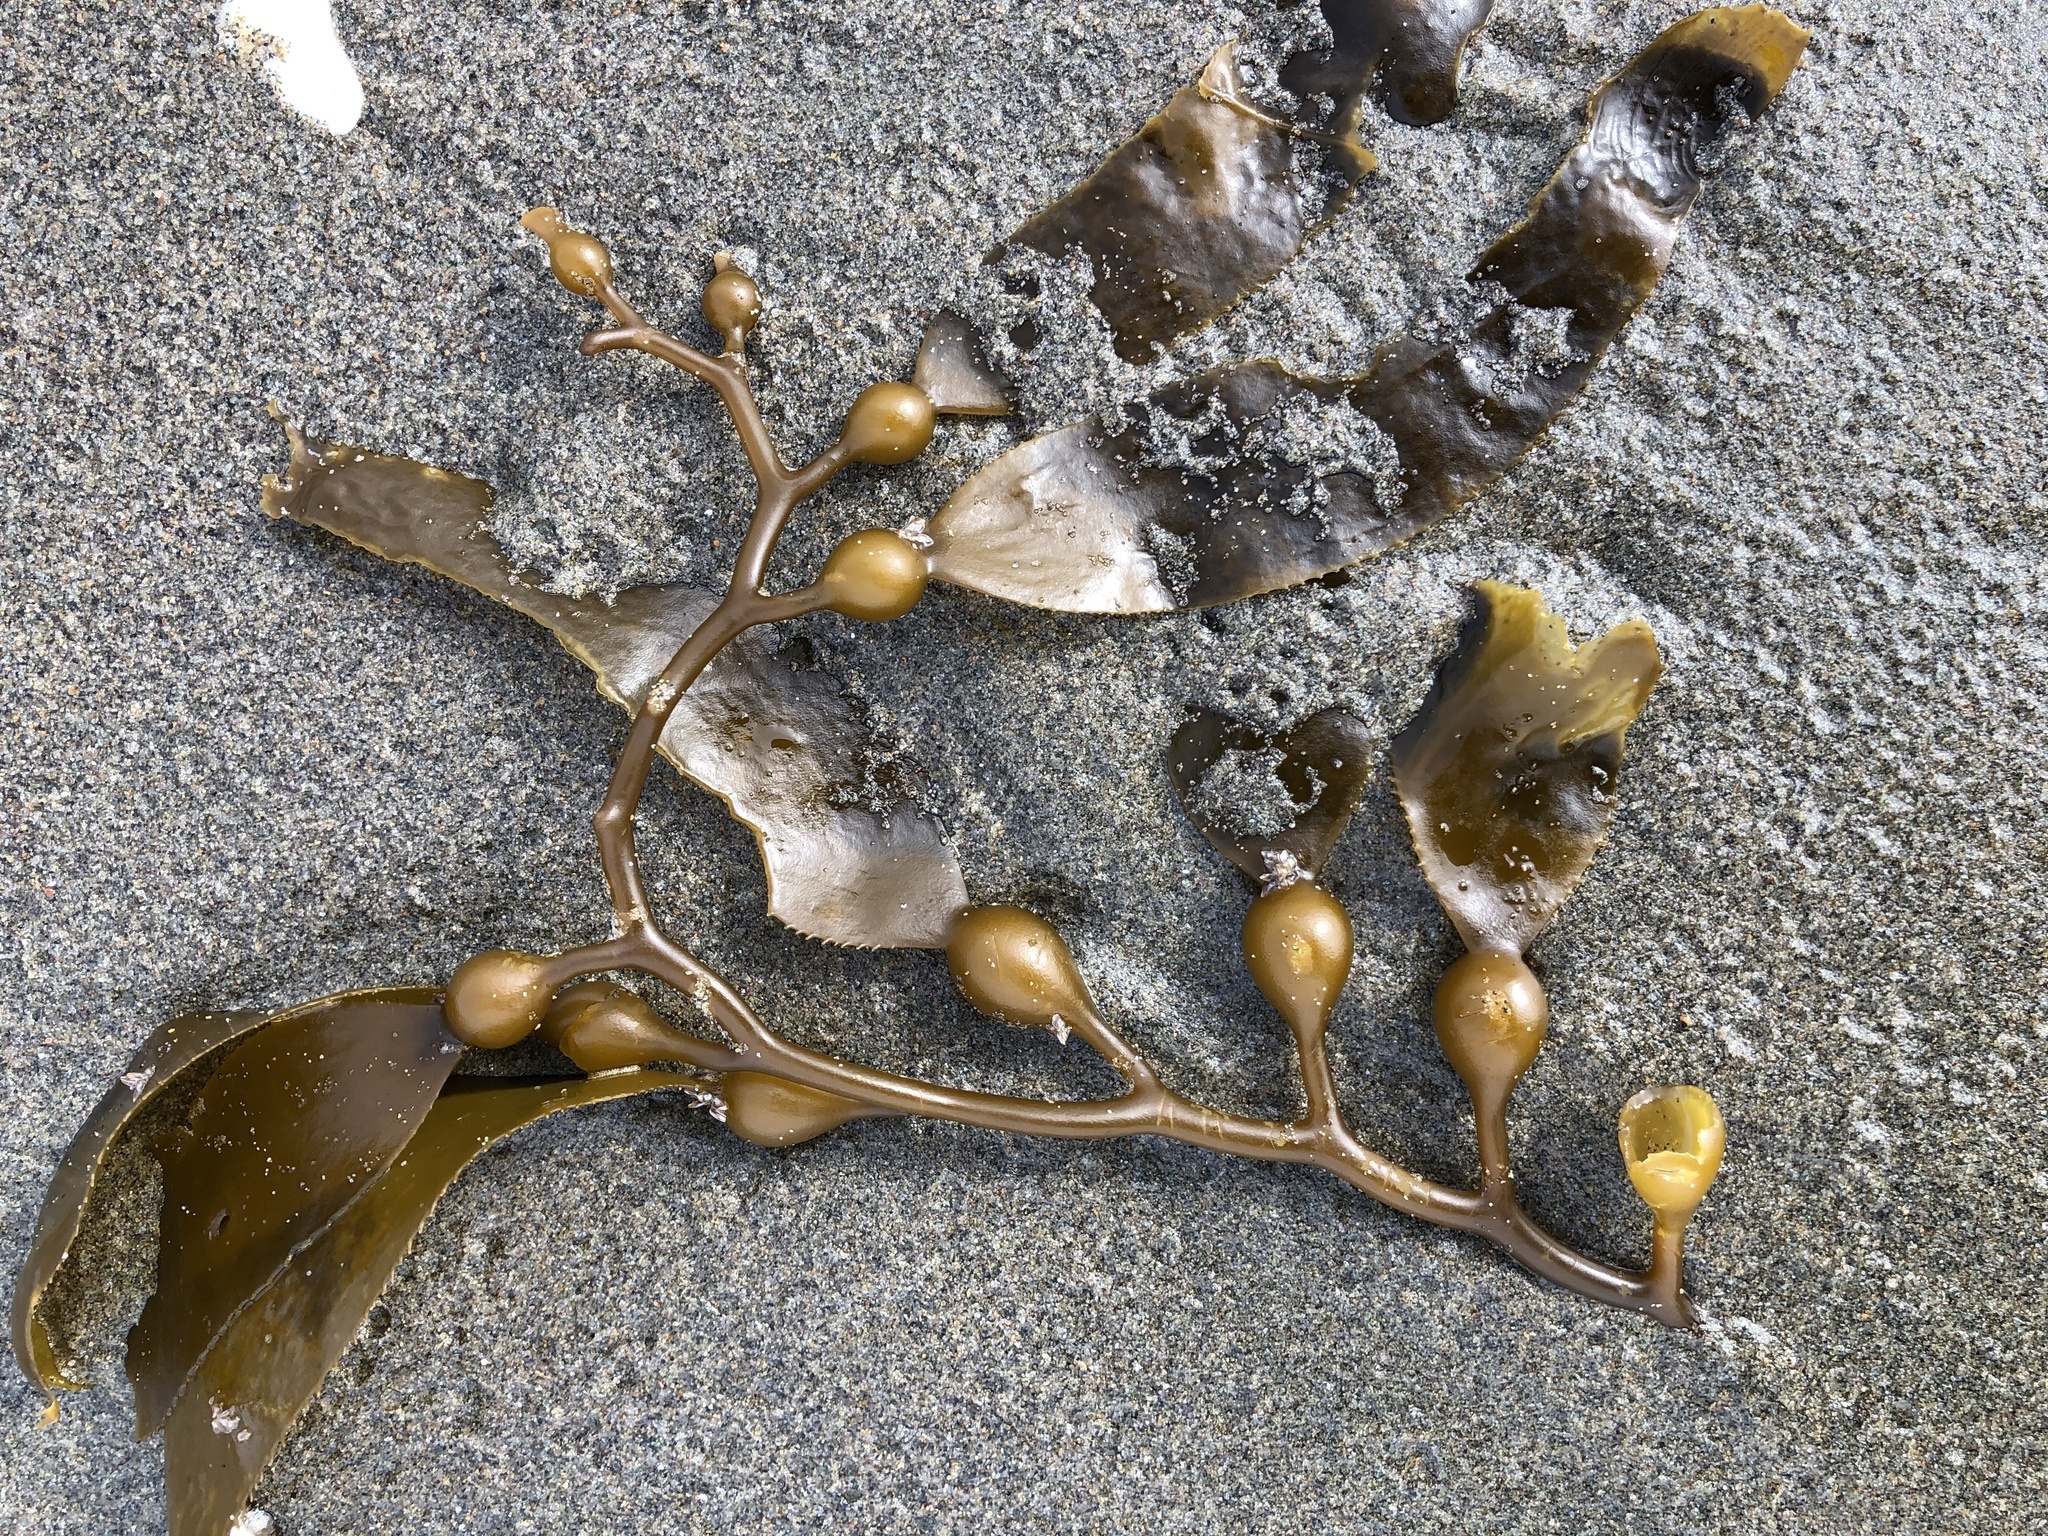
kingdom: Chromista
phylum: Ochrophyta
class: Phaeophyceae
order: Laminariales
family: Laminariaceae
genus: Macrocystis
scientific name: Macrocystis pyrifera
